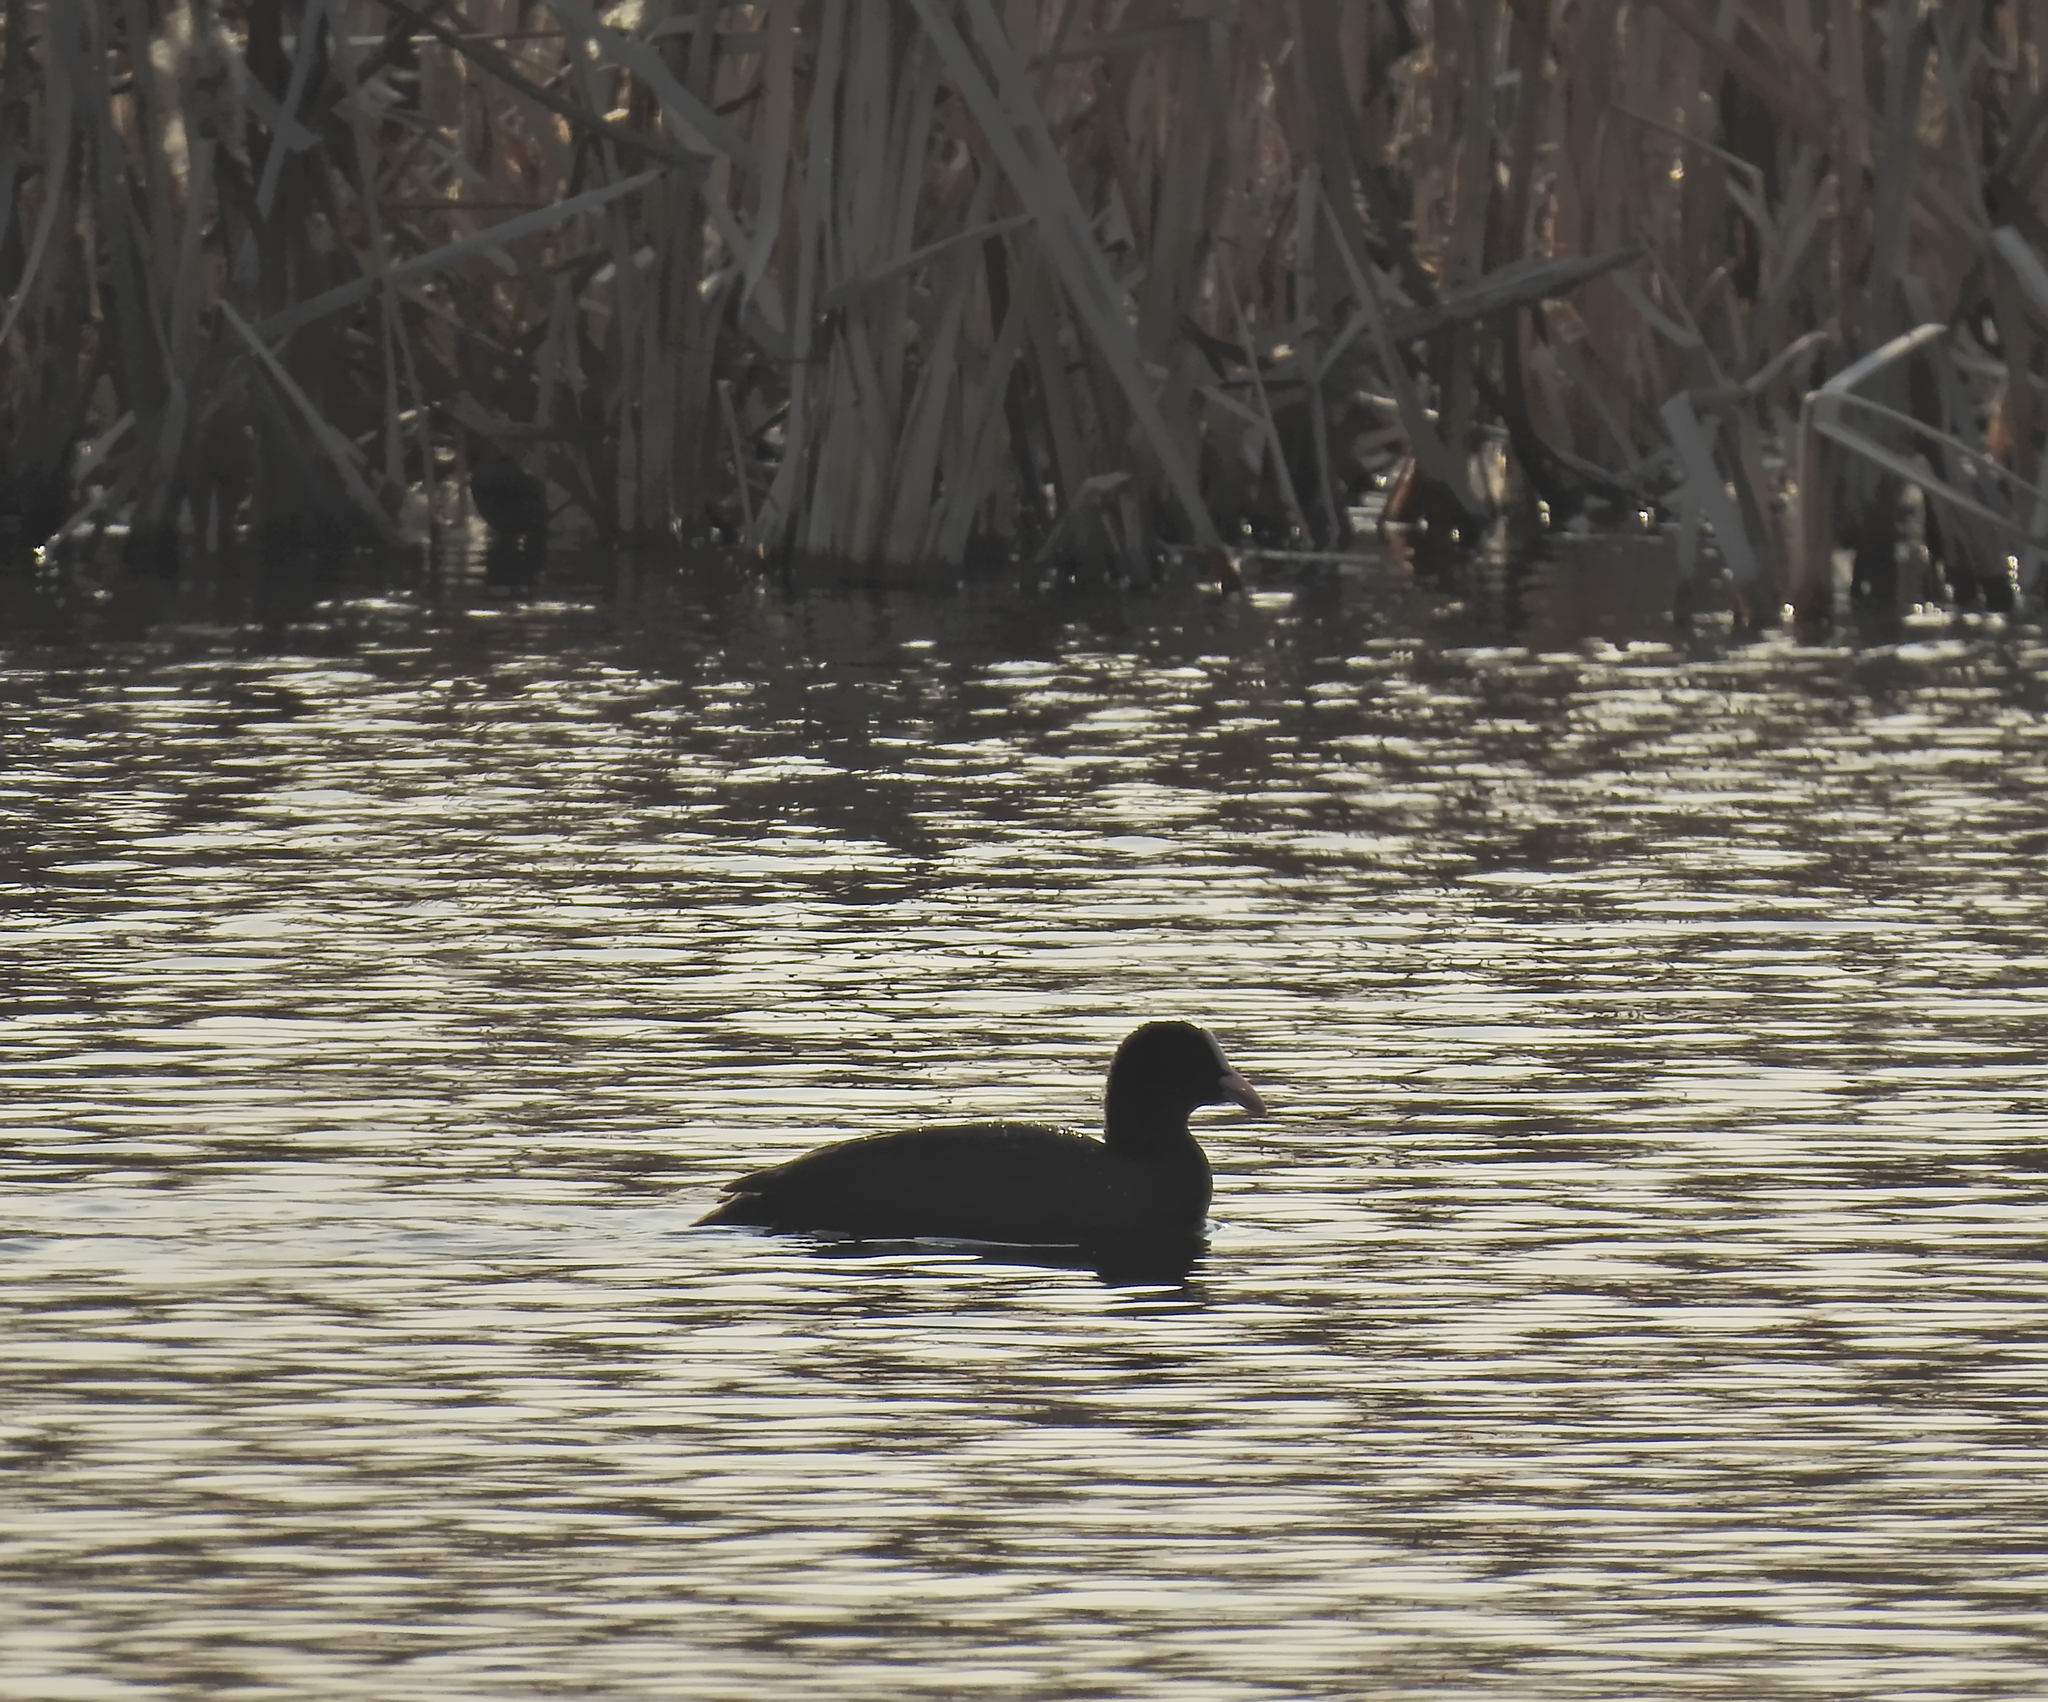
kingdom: Animalia
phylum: Chordata
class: Aves
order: Gruiformes
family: Rallidae
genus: Fulica
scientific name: Fulica atra
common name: Eurasian coot
